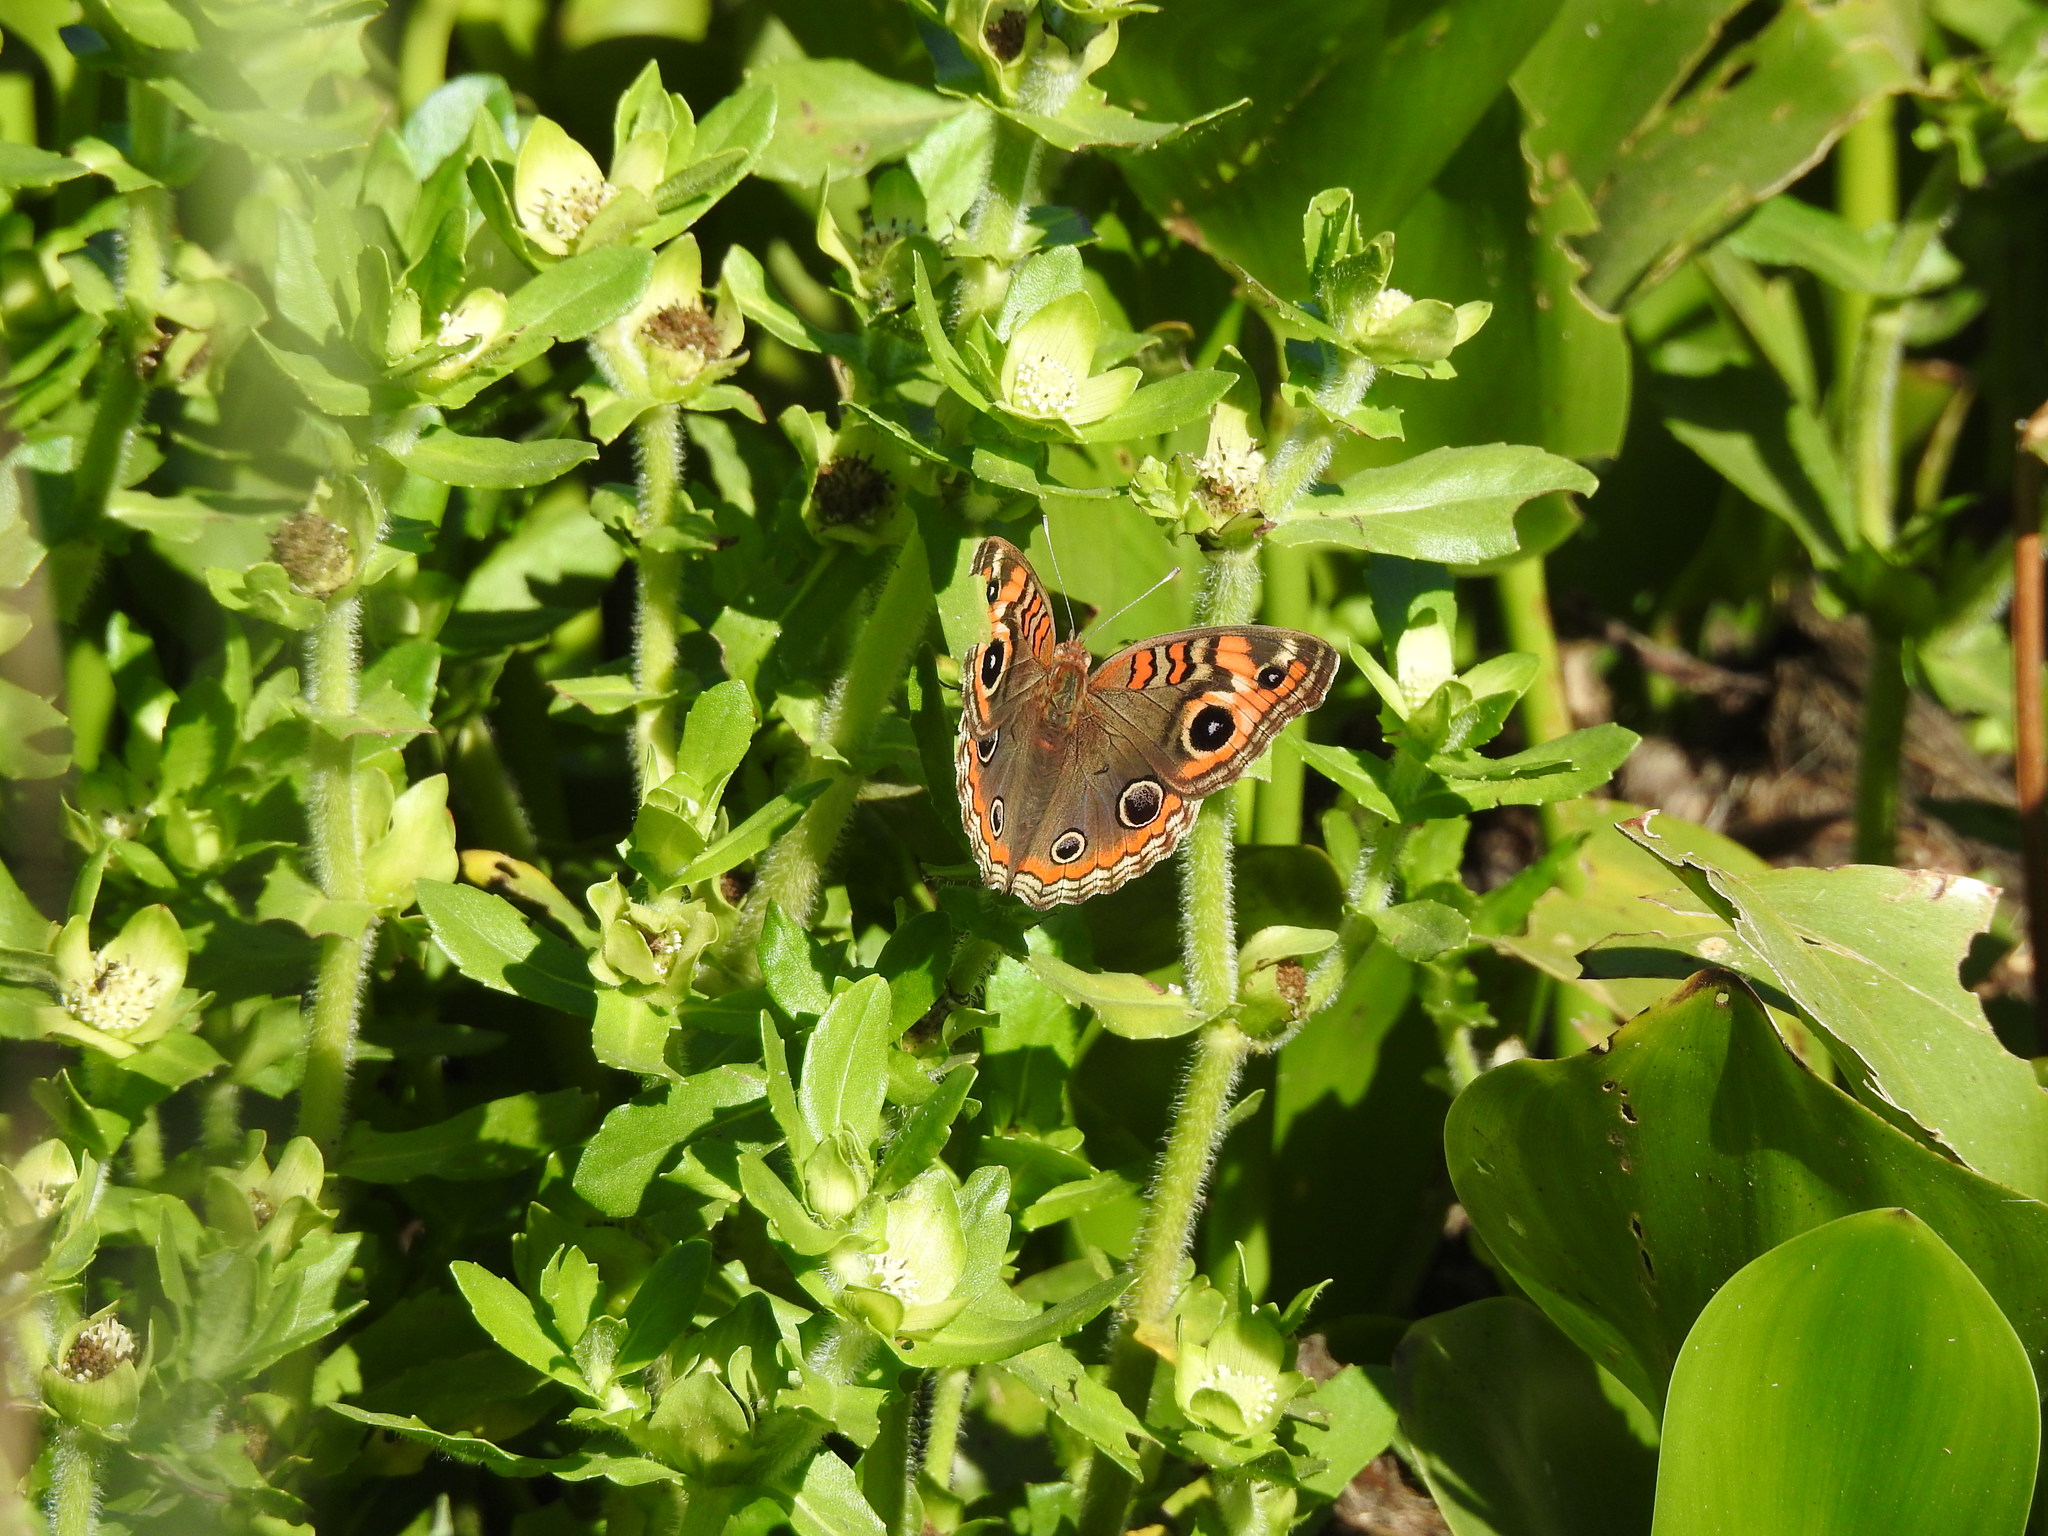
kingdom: Animalia
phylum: Arthropoda
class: Insecta
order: Lepidoptera
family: Nymphalidae
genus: Junonia
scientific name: Junonia lavinia
